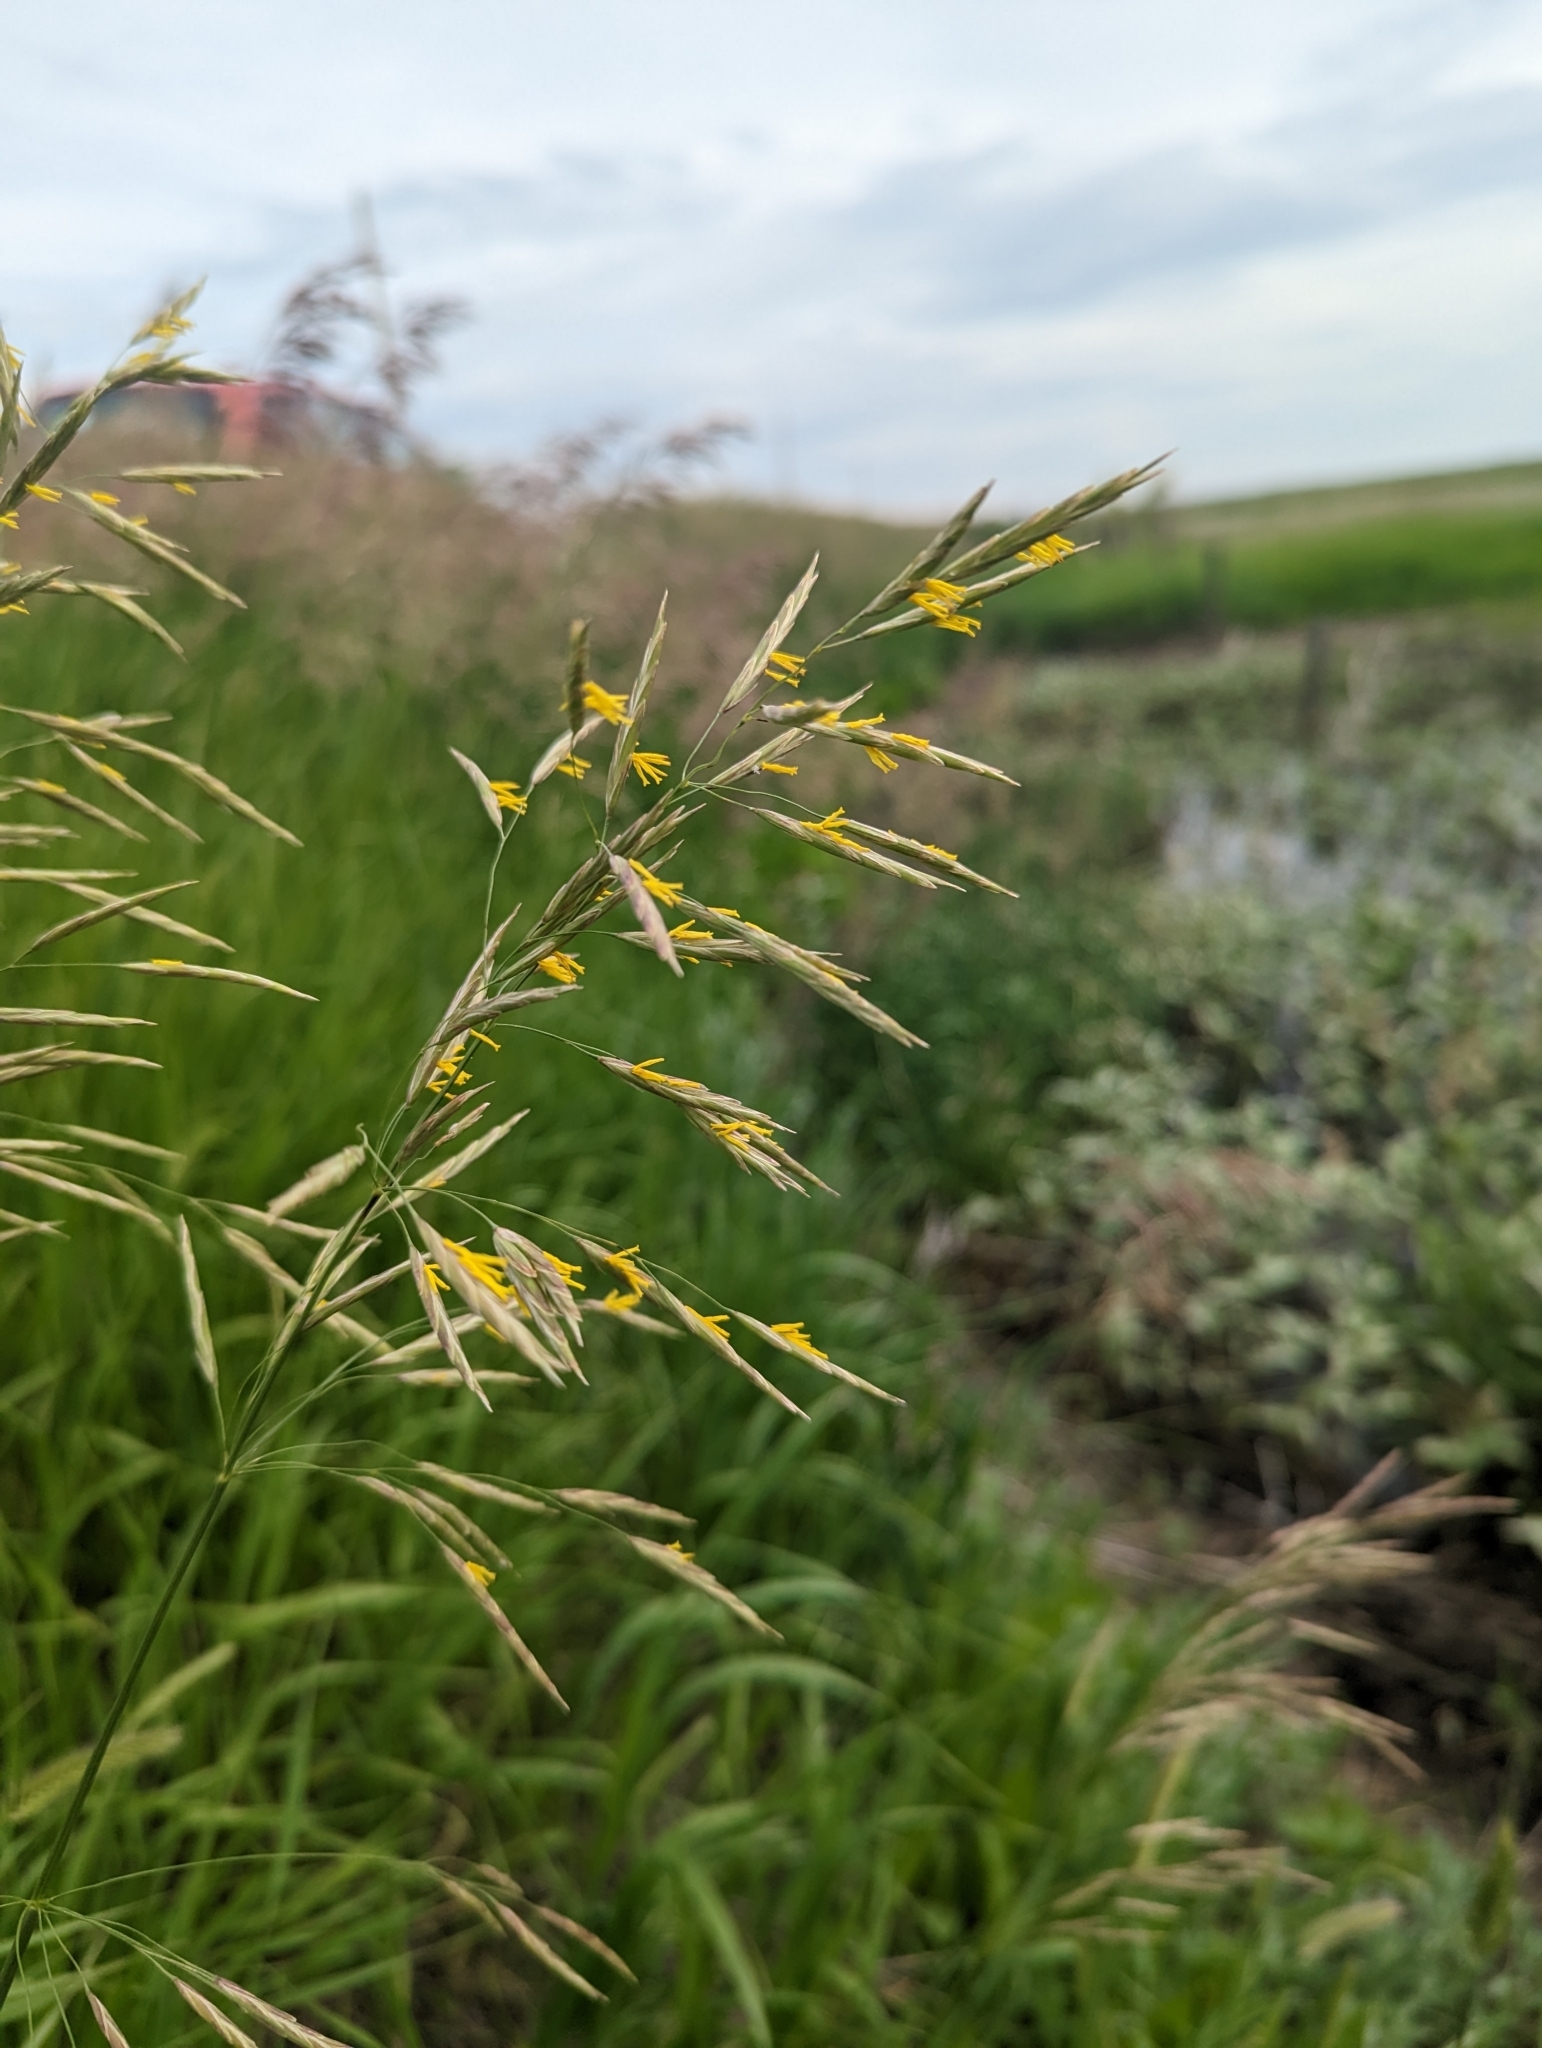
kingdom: Plantae
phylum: Tracheophyta
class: Liliopsida
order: Poales
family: Poaceae
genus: Bromus
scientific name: Bromus inermis
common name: Smooth brome
